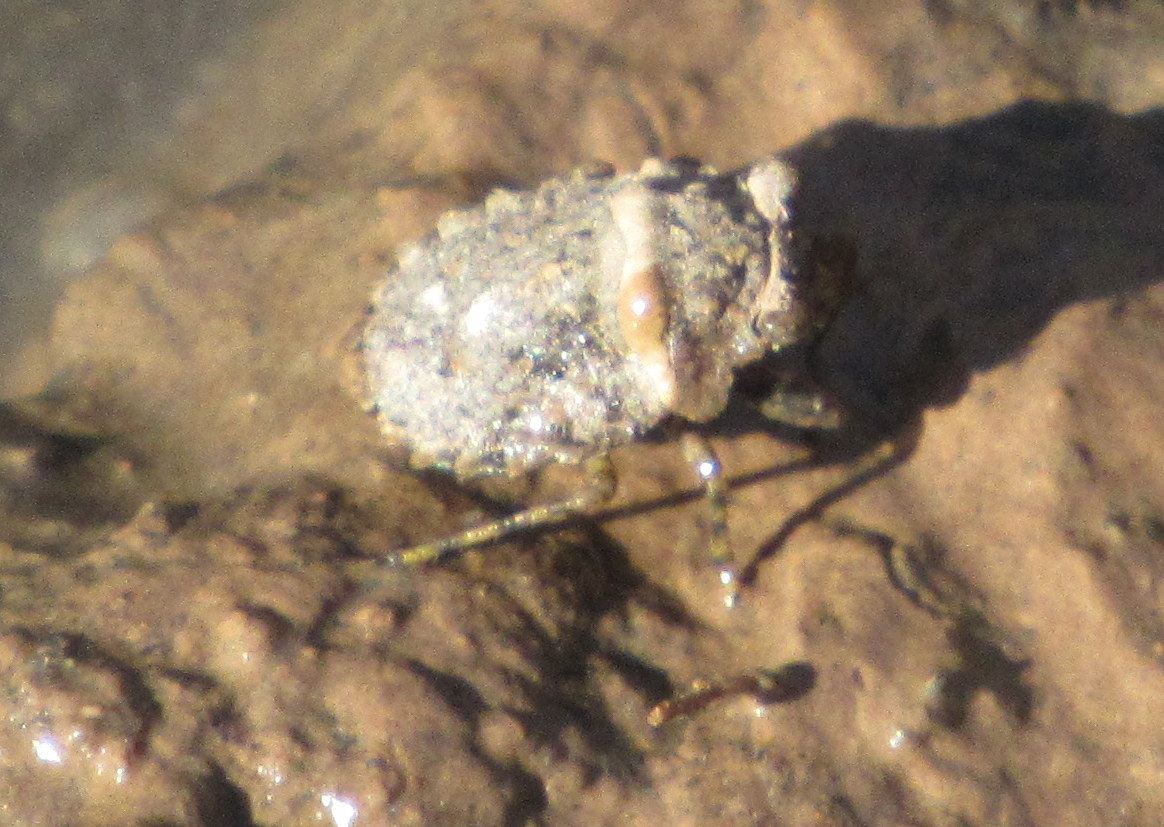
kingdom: Animalia
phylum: Arthropoda
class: Insecta
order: Hemiptera
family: Gelastocoridae
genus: Gelastocoris
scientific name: Gelastocoris oculatus
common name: Toad bug
